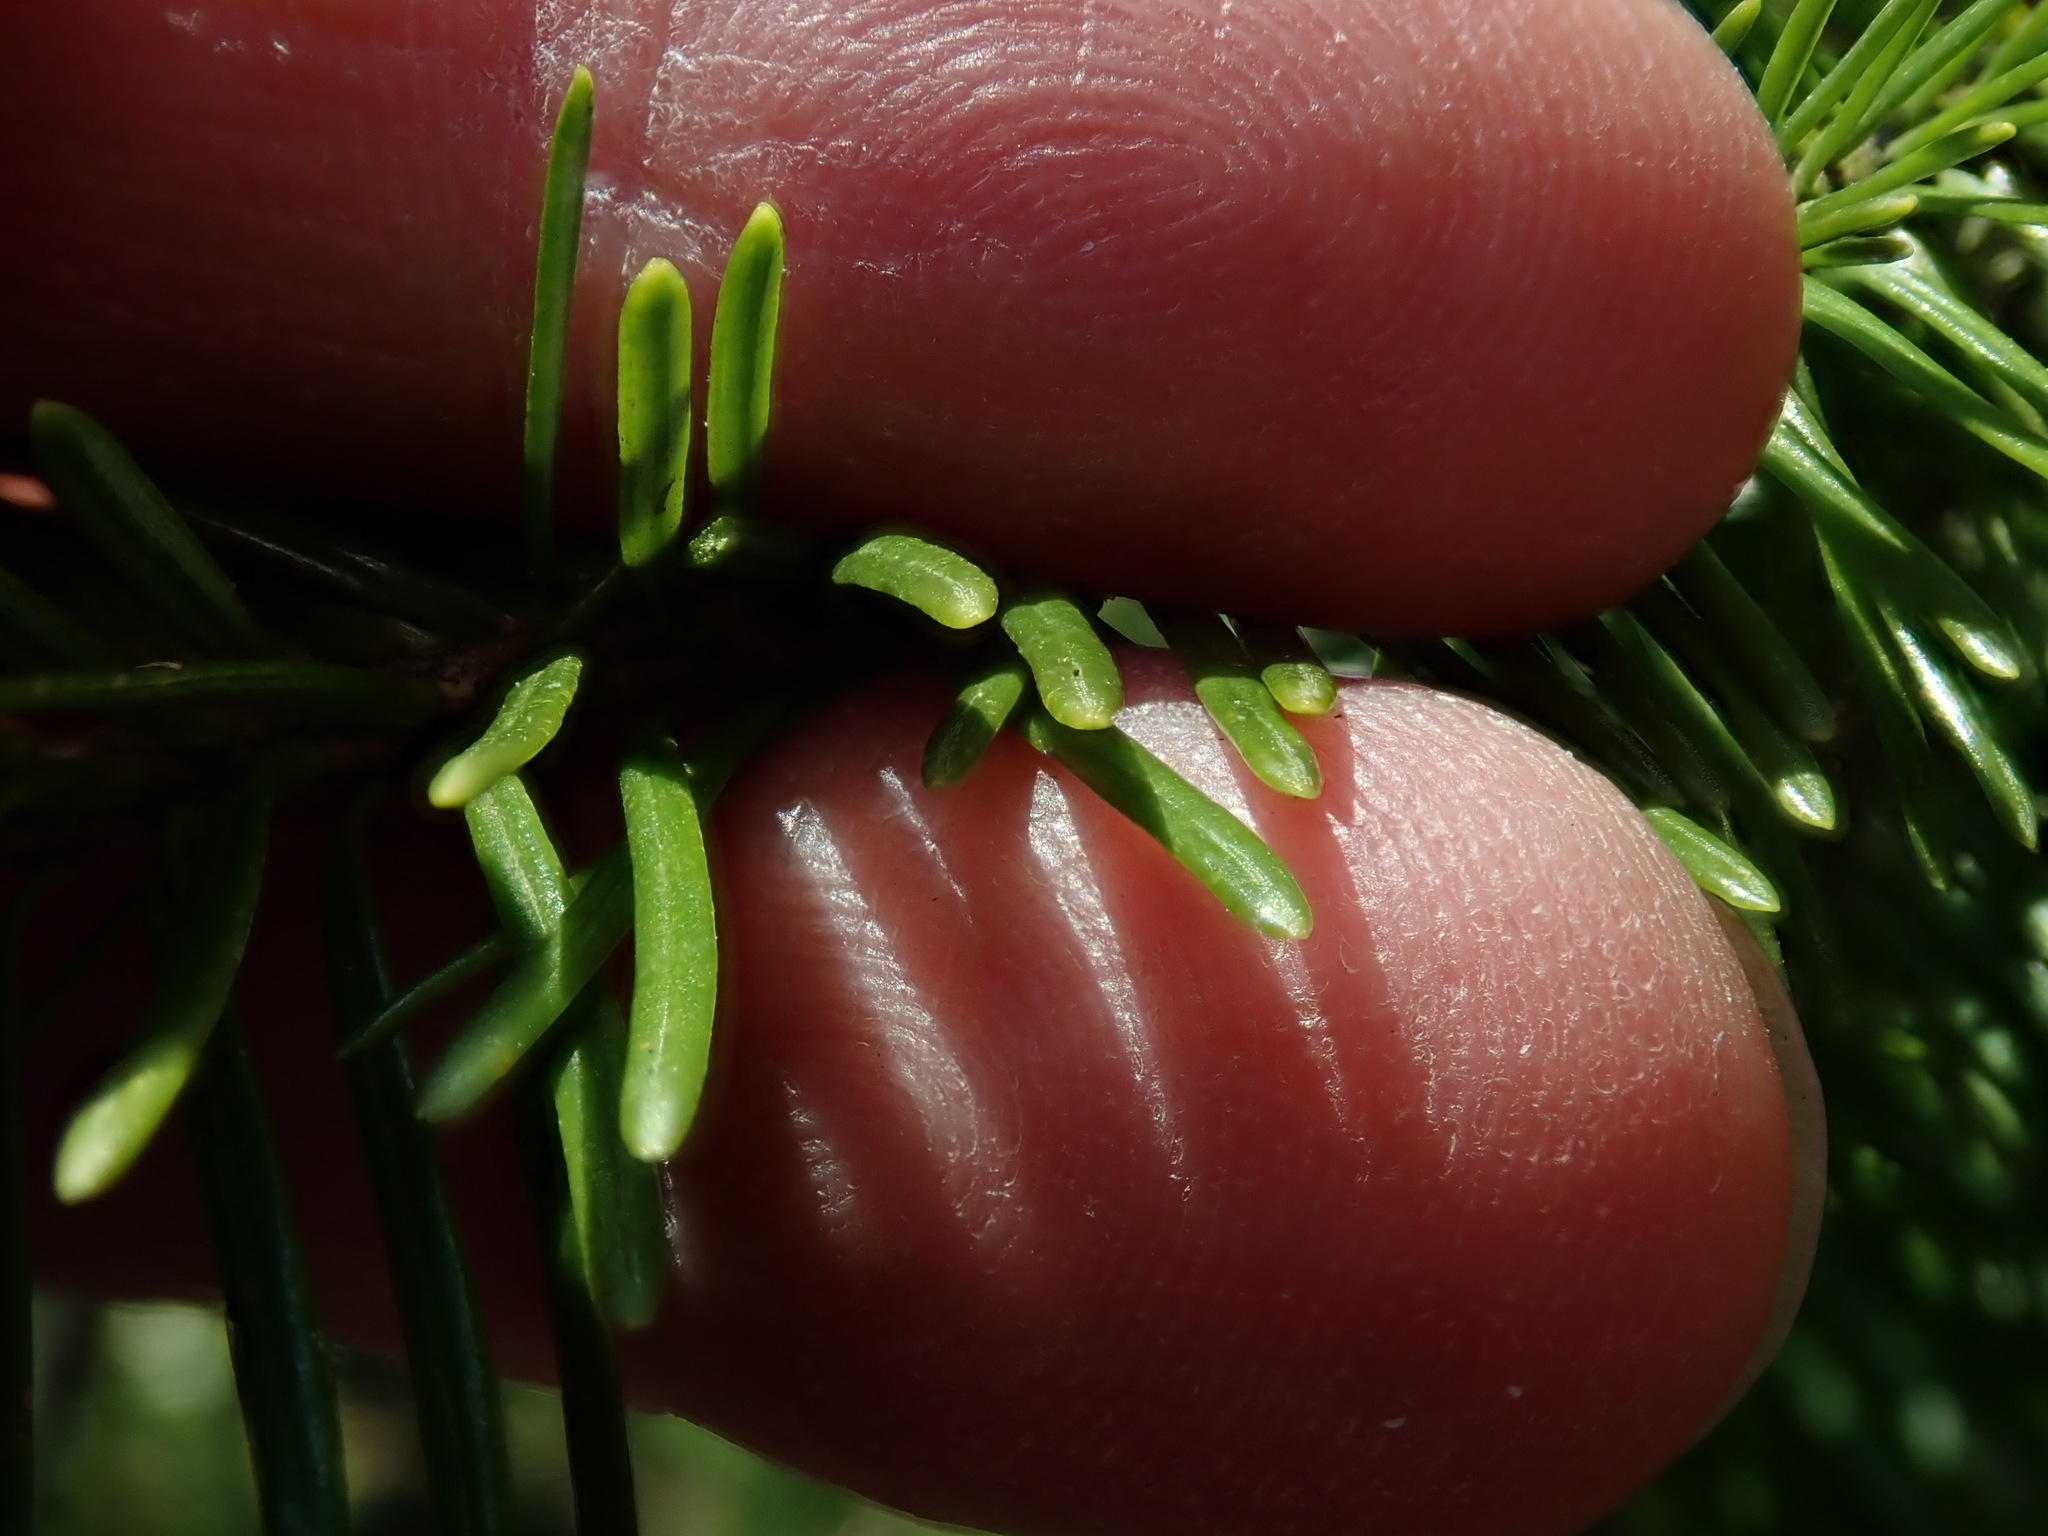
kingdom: Plantae
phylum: Tracheophyta
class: Pinopsida
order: Pinales
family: Pinaceae
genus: Abies
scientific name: Abies balsamea
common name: Balsam fir
